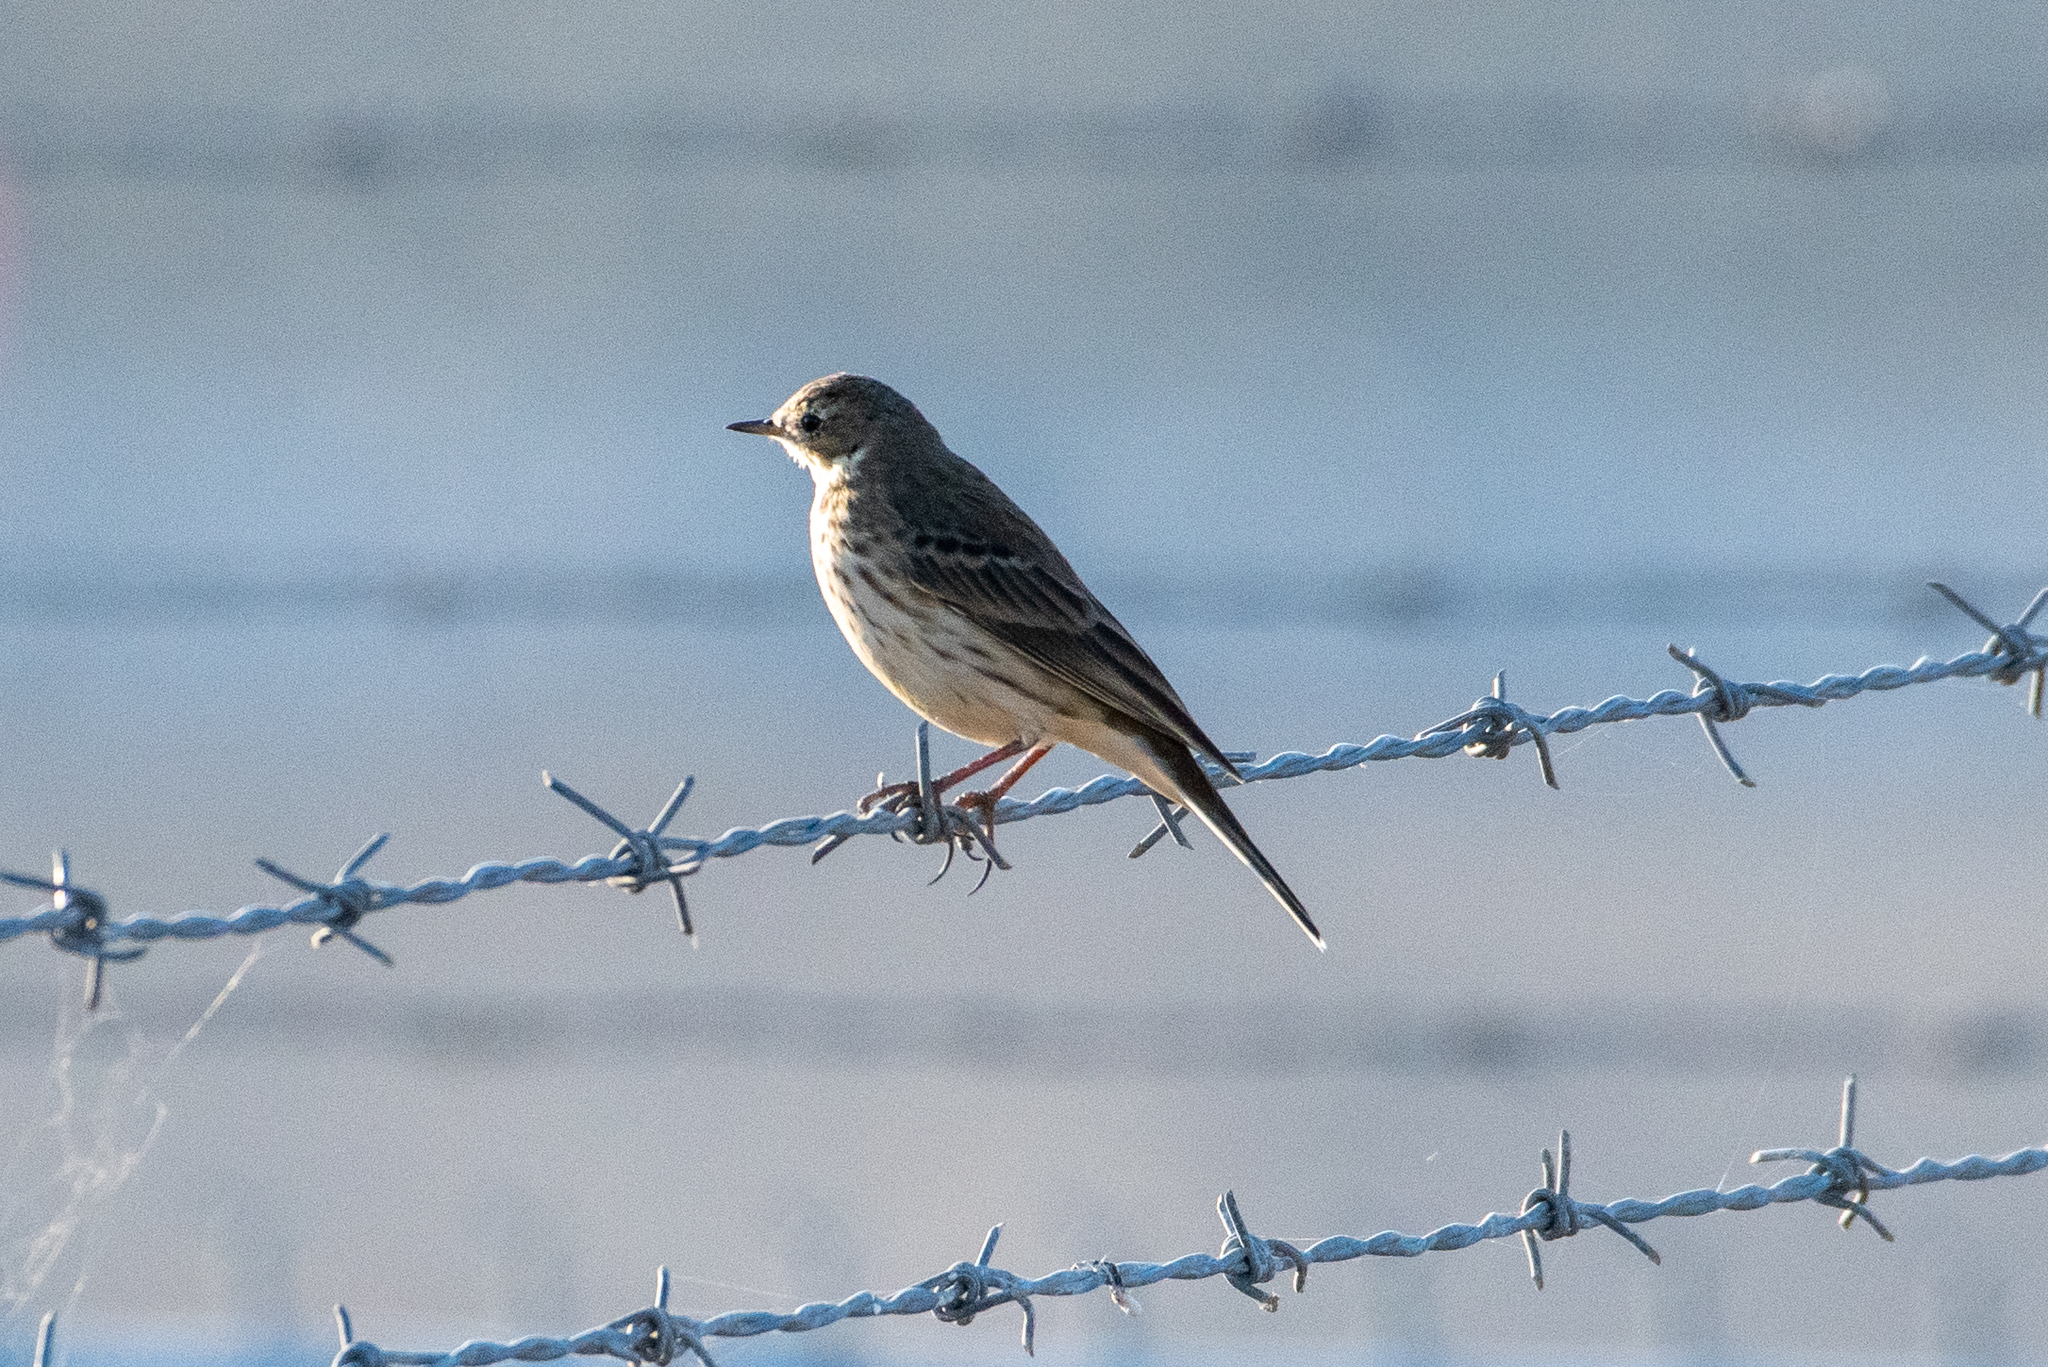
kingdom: Animalia
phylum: Chordata
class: Aves
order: Passeriformes
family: Motacillidae
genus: Anthus
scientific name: Anthus rubescens
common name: Buff-bellied pipit
